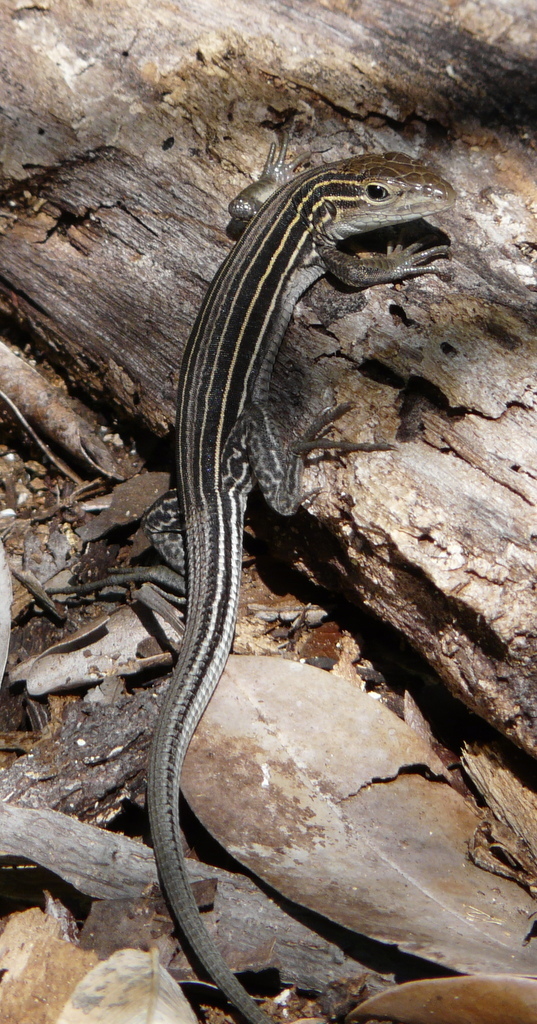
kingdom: Animalia
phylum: Chordata
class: Squamata
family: Teiidae
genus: Aspidoscelis
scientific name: Aspidoscelis sexlineatus
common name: Six-lined racerunner
